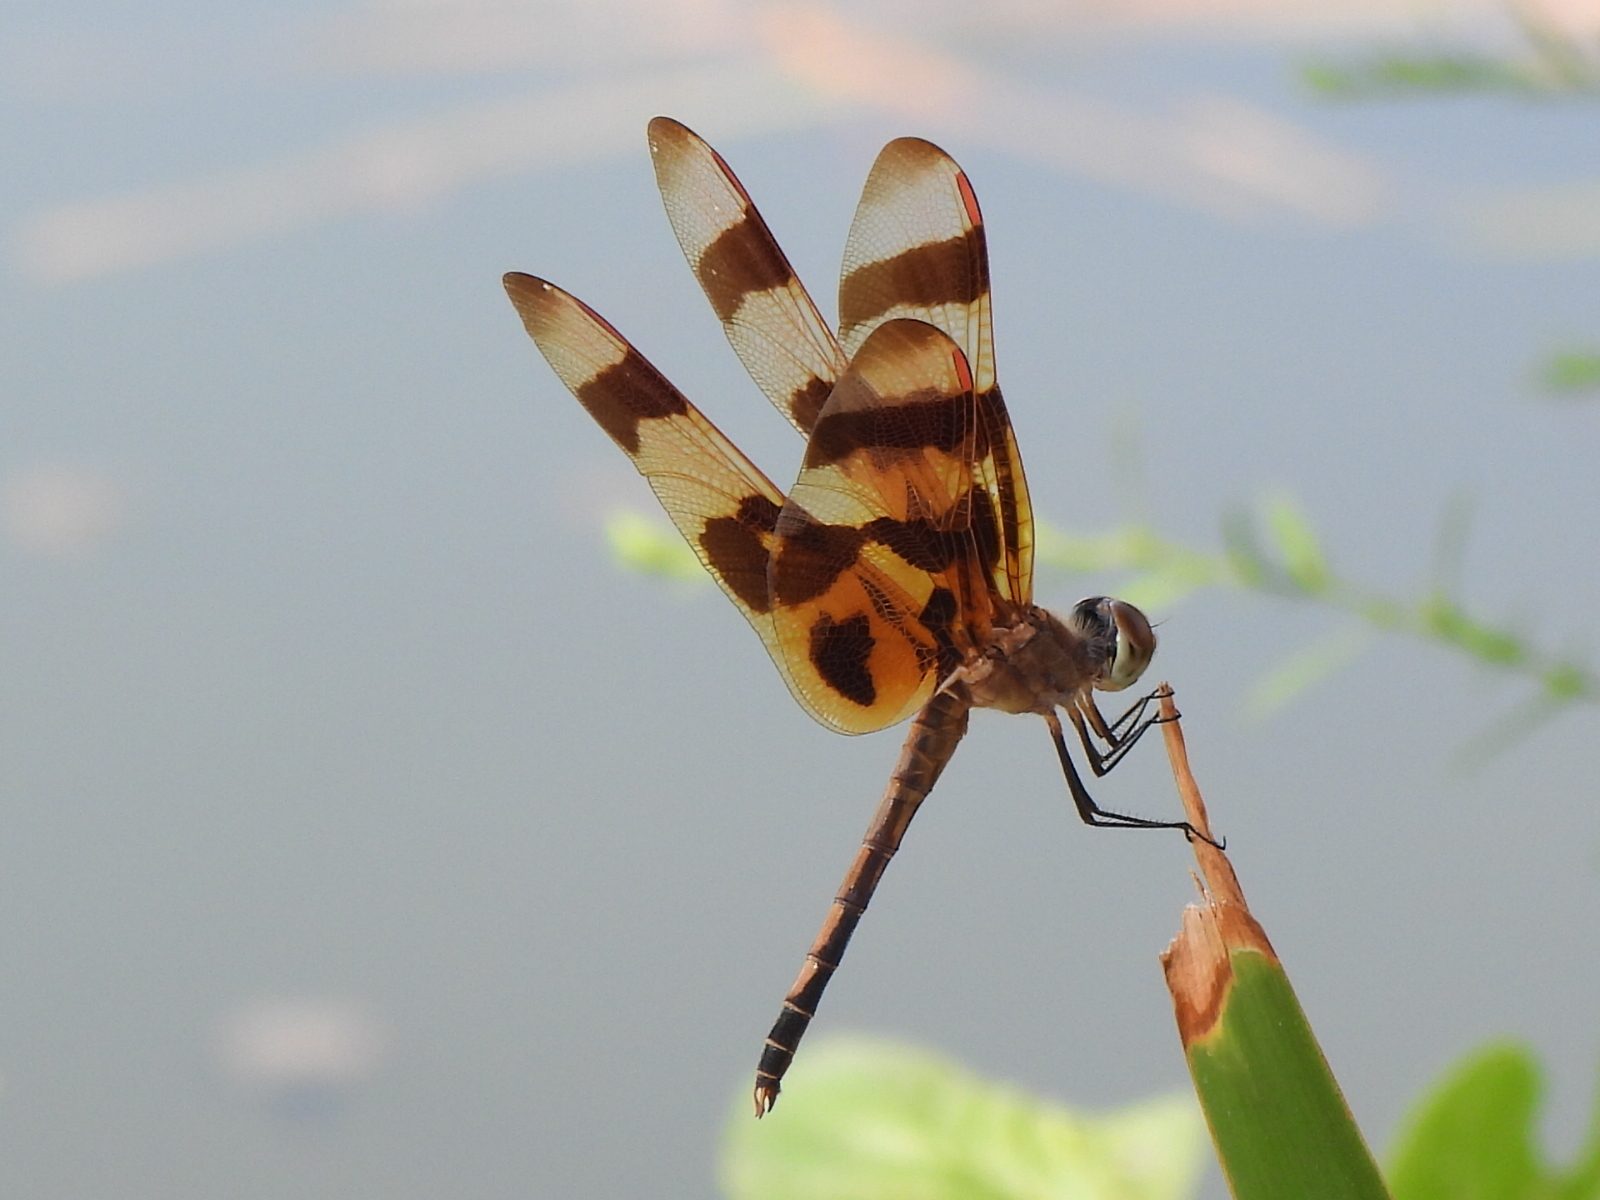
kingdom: Animalia
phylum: Arthropoda
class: Insecta
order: Odonata
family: Libellulidae
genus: Celithemis
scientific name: Celithemis eponina
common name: Halloween pennant
